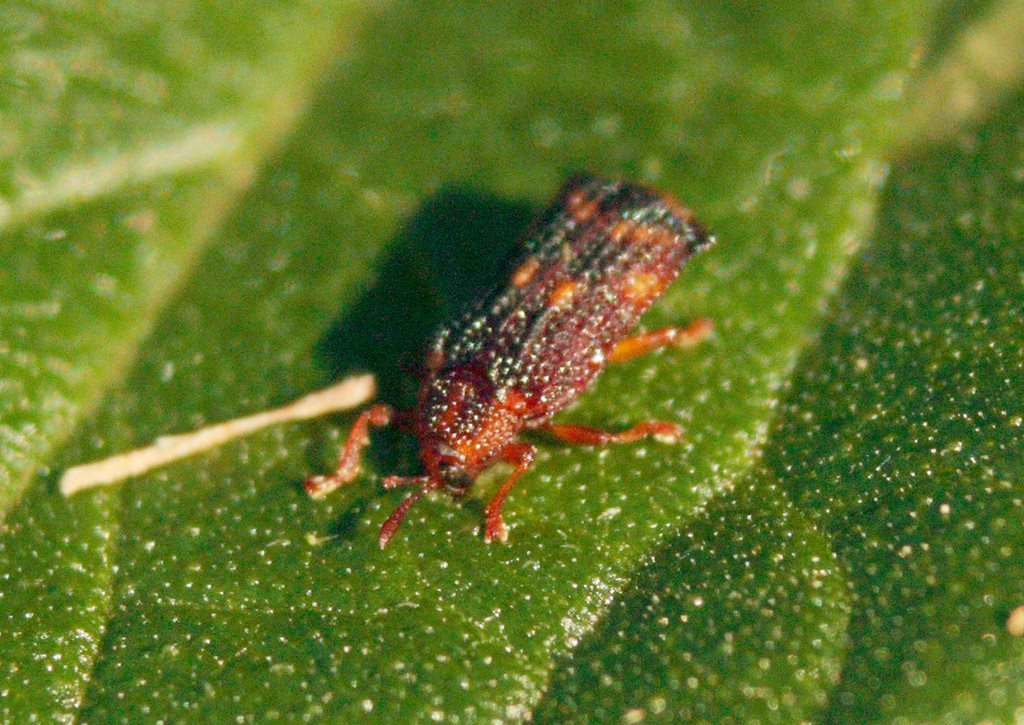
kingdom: Animalia
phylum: Arthropoda
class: Insecta
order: Coleoptera
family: Chrysomelidae
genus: Uroplata
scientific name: Uroplata girardi
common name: Lantana leafminer
